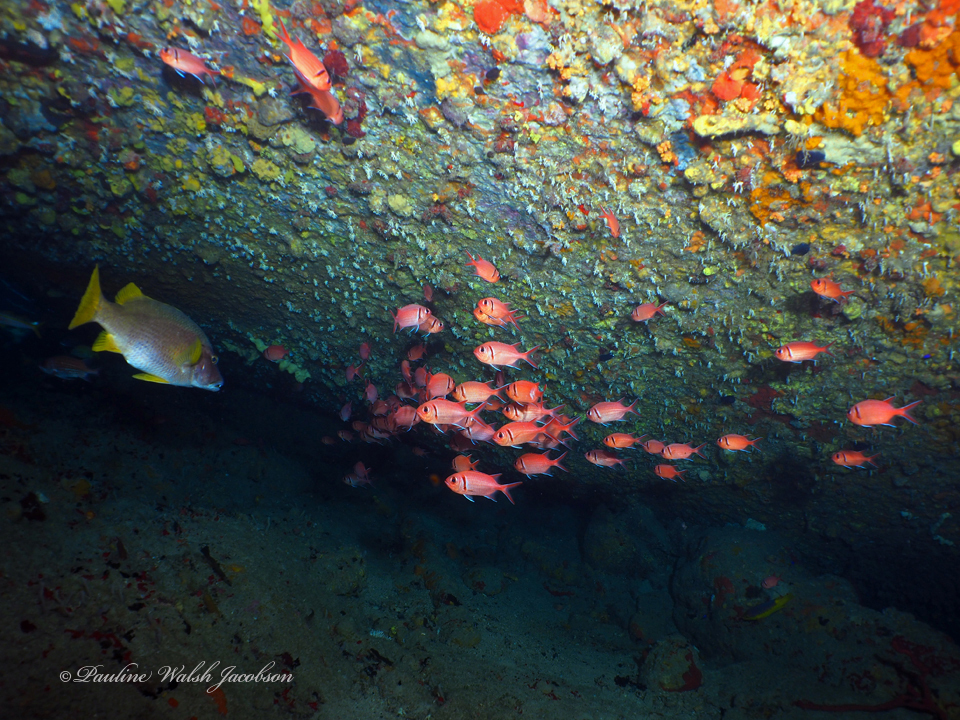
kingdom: Animalia
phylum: Chordata
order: Perciformes
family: Lutjanidae
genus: Lutjanus
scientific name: Lutjanus apodus
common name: Schoolmaster
